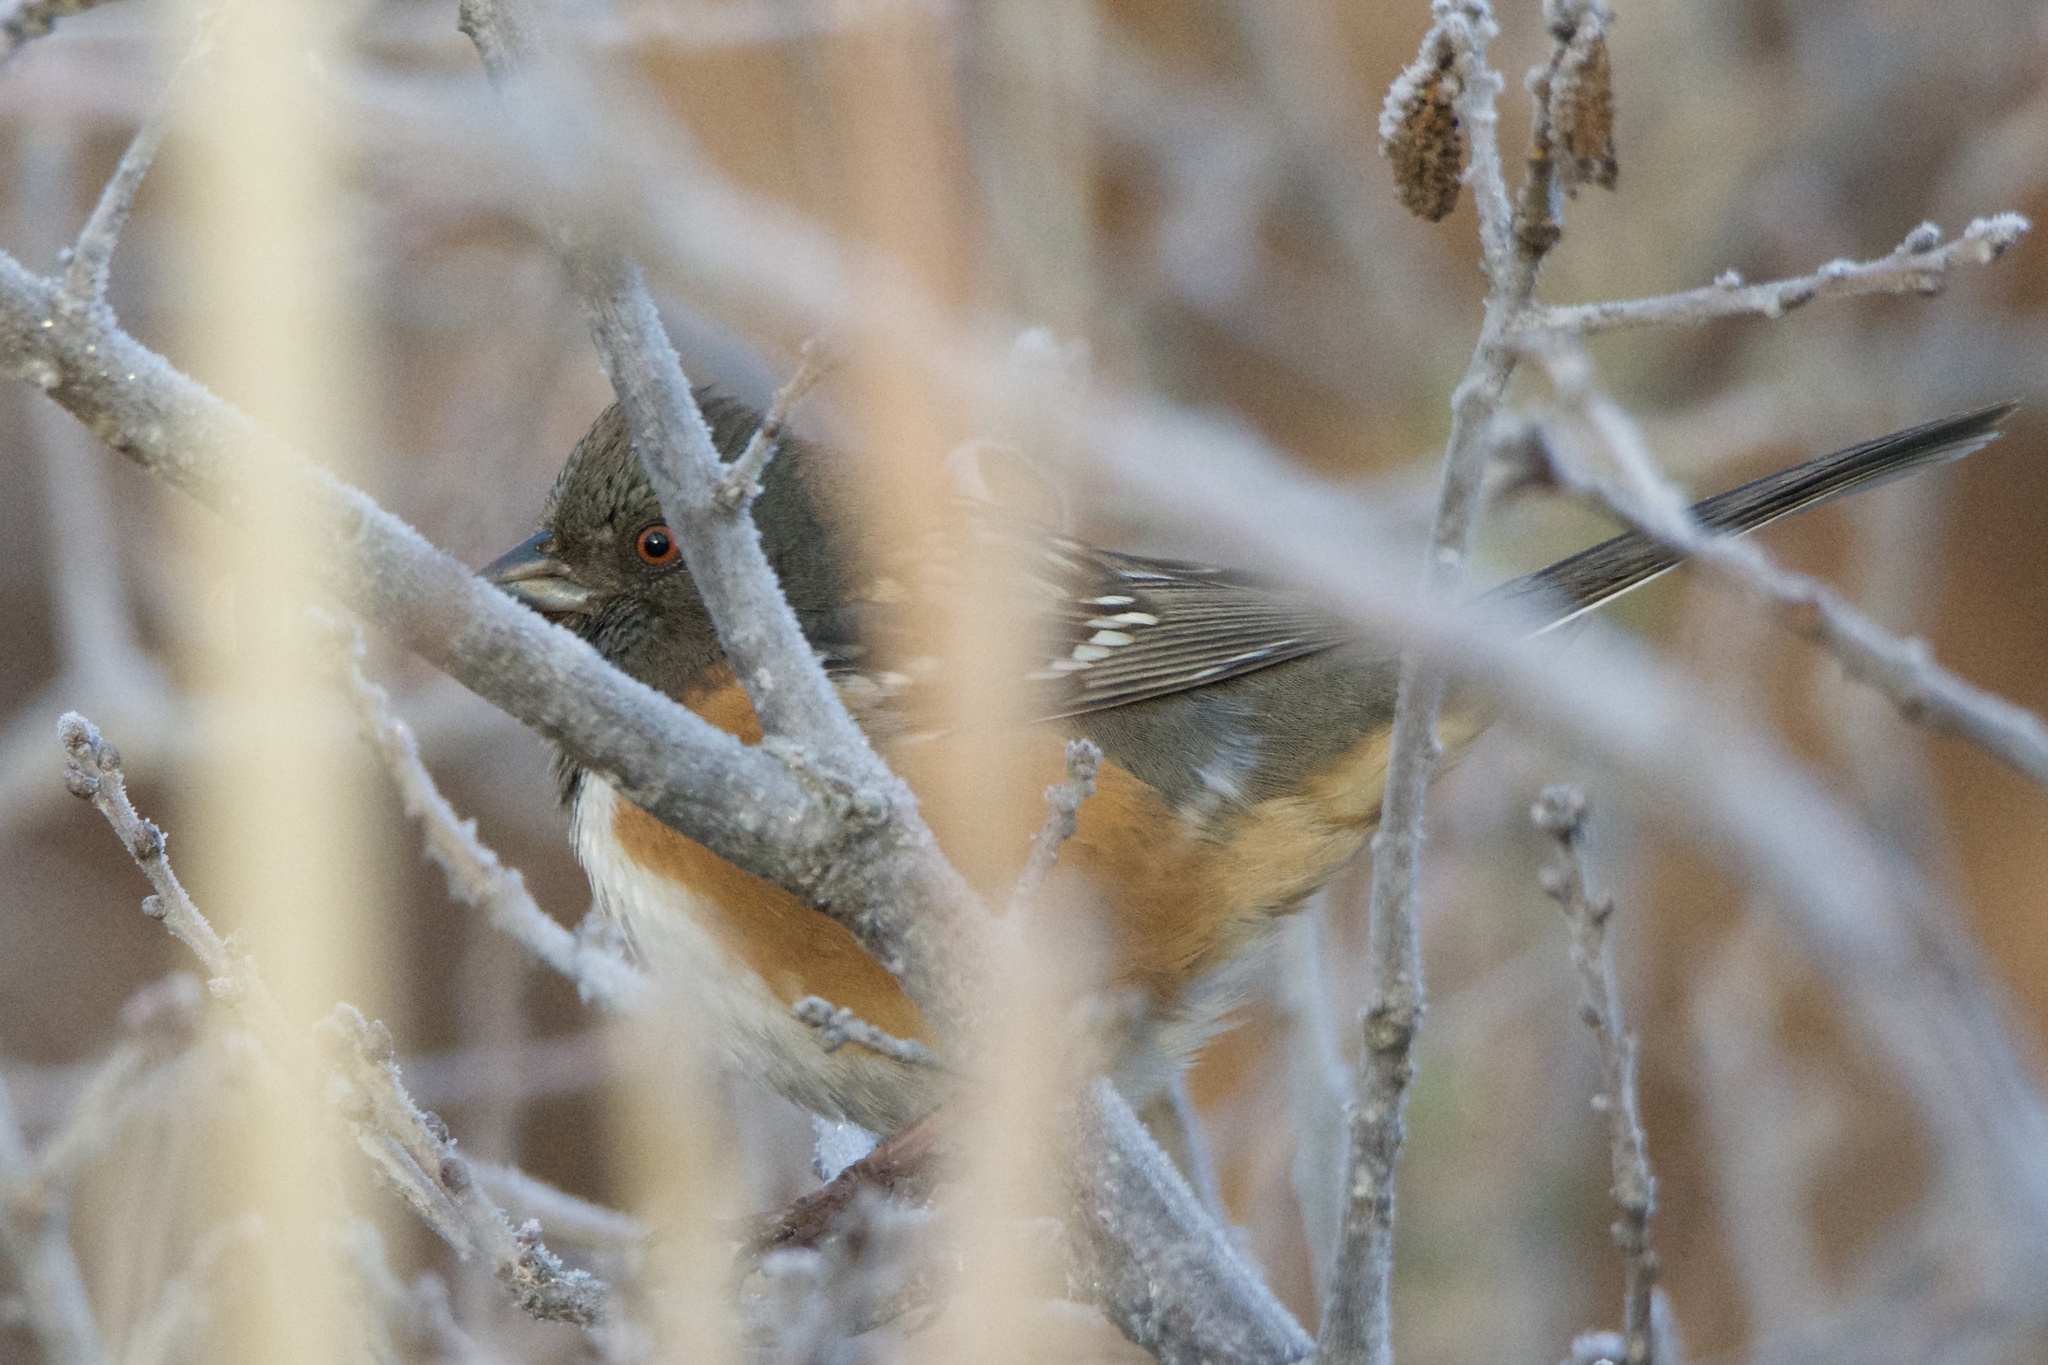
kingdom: Animalia
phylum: Chordata
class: Aves
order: Passeriformes
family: Passerellidae
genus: Pipilo
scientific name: Pipilo maculatus
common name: Spotted towhee
